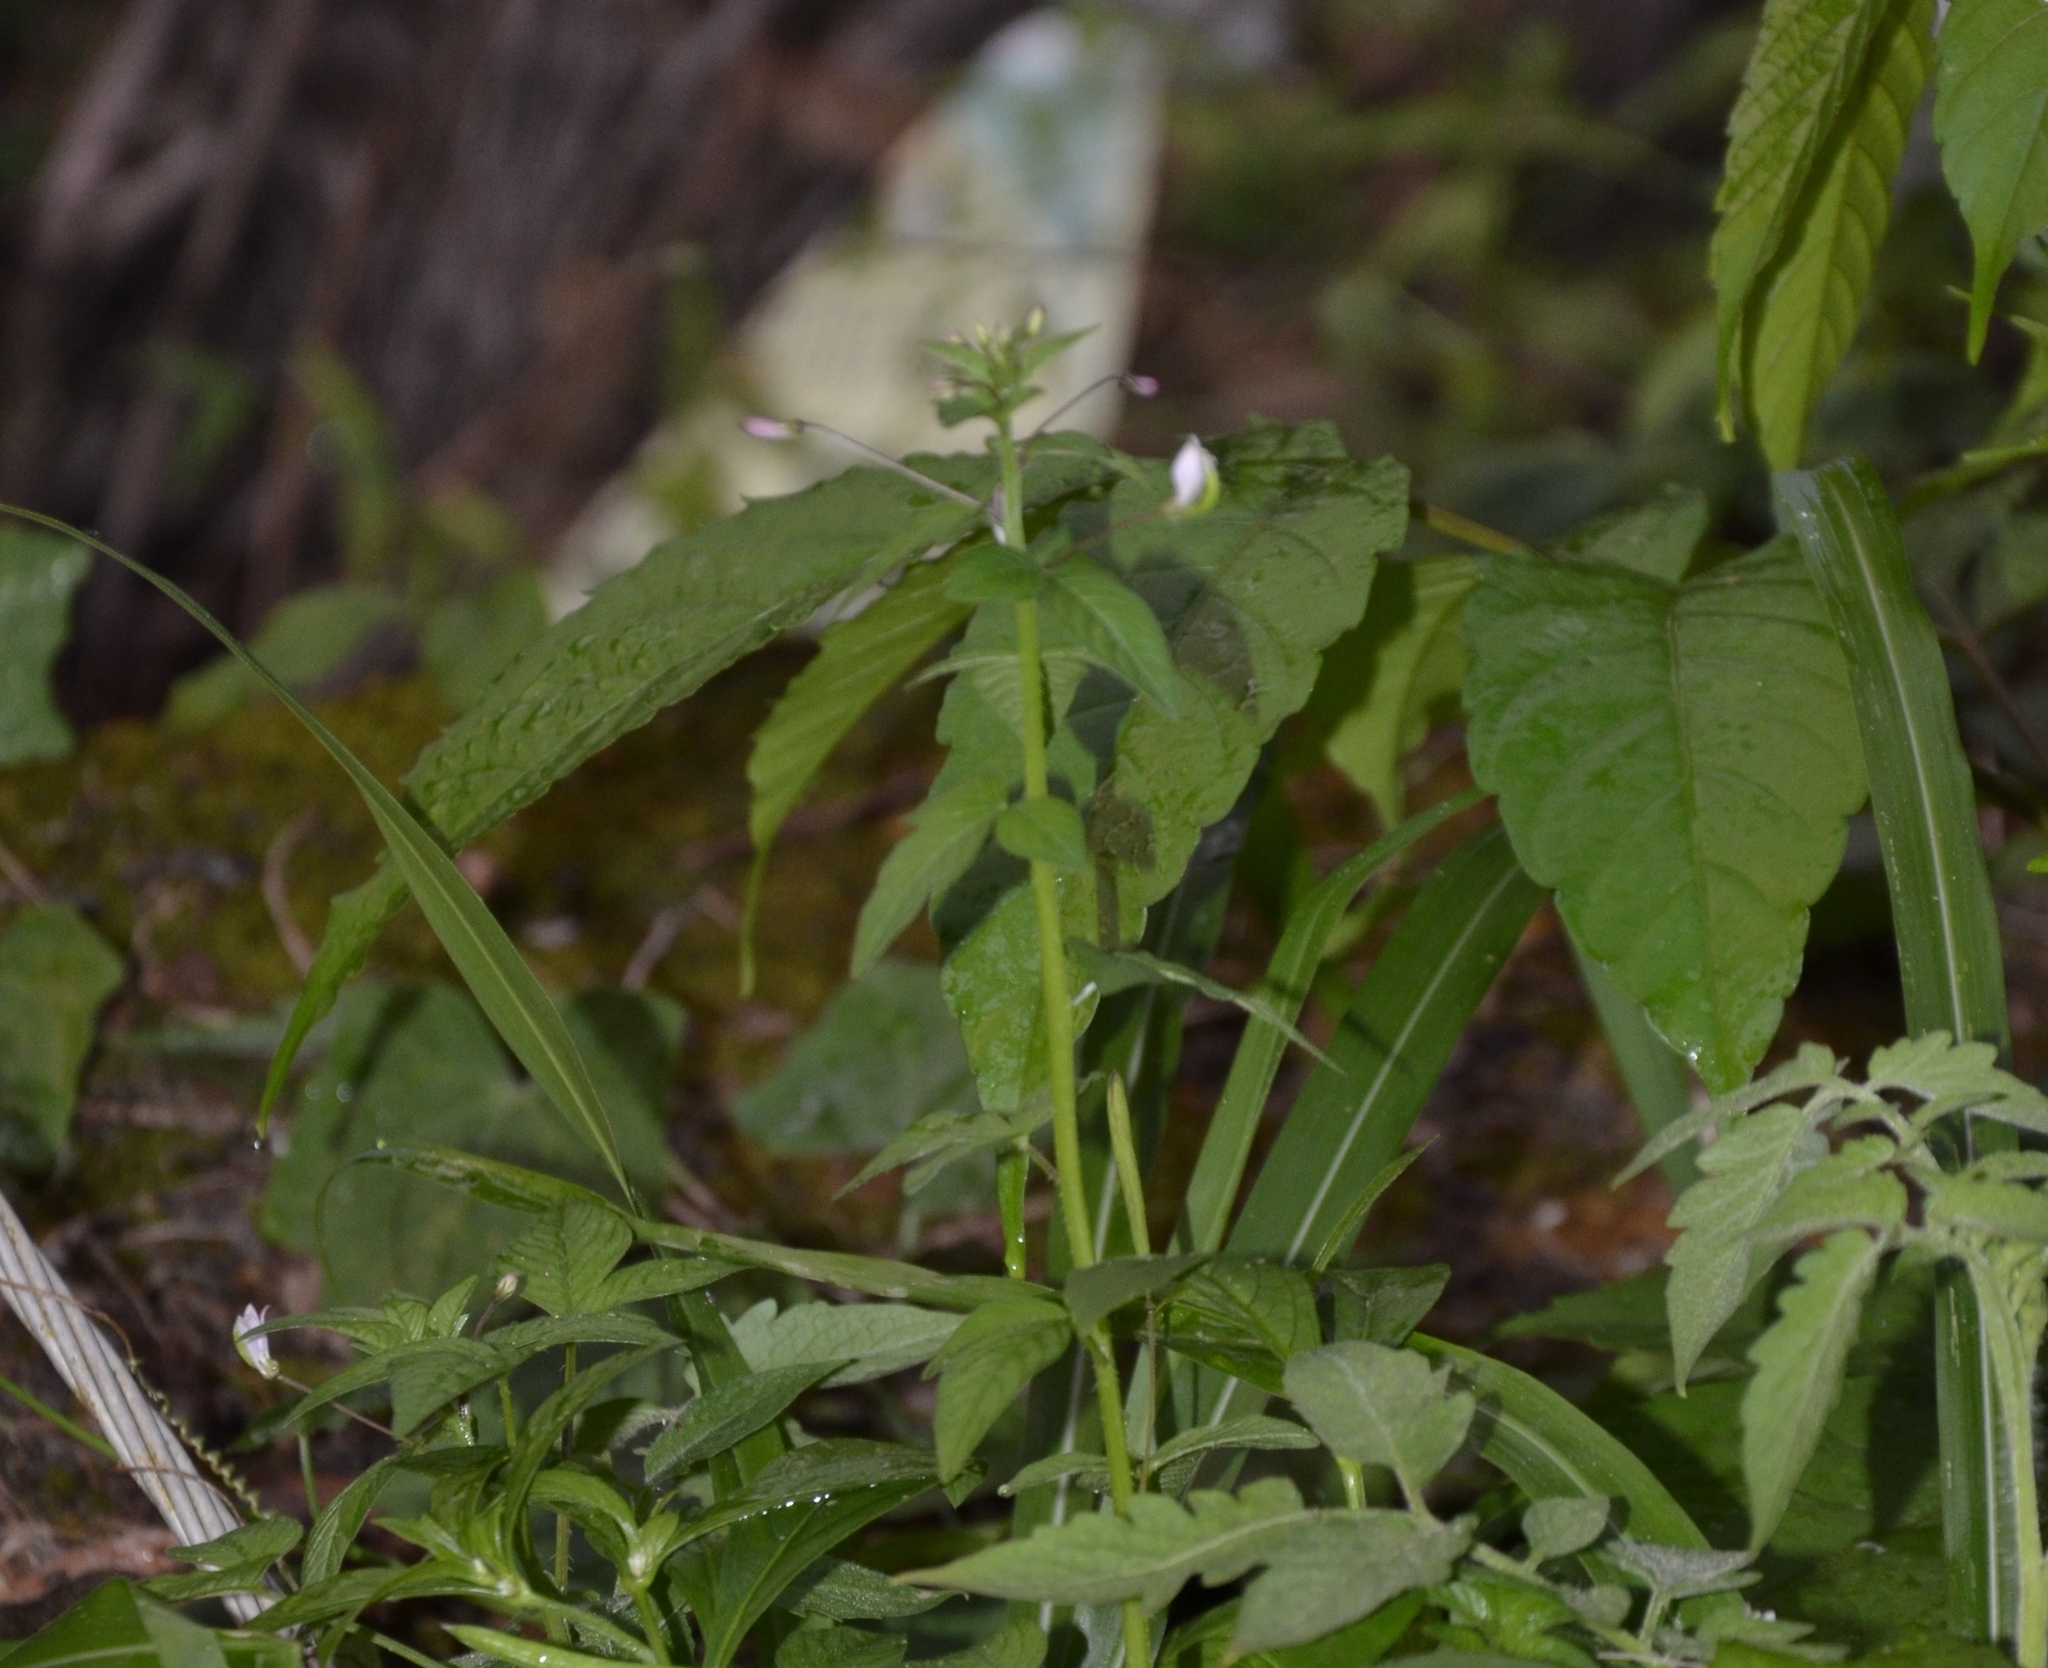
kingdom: Plantae
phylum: Tracheophyta
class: Magnoliopsida
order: Brassicales
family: Cleomaceae
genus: Sieruela
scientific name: Sieruela rutidosperma
